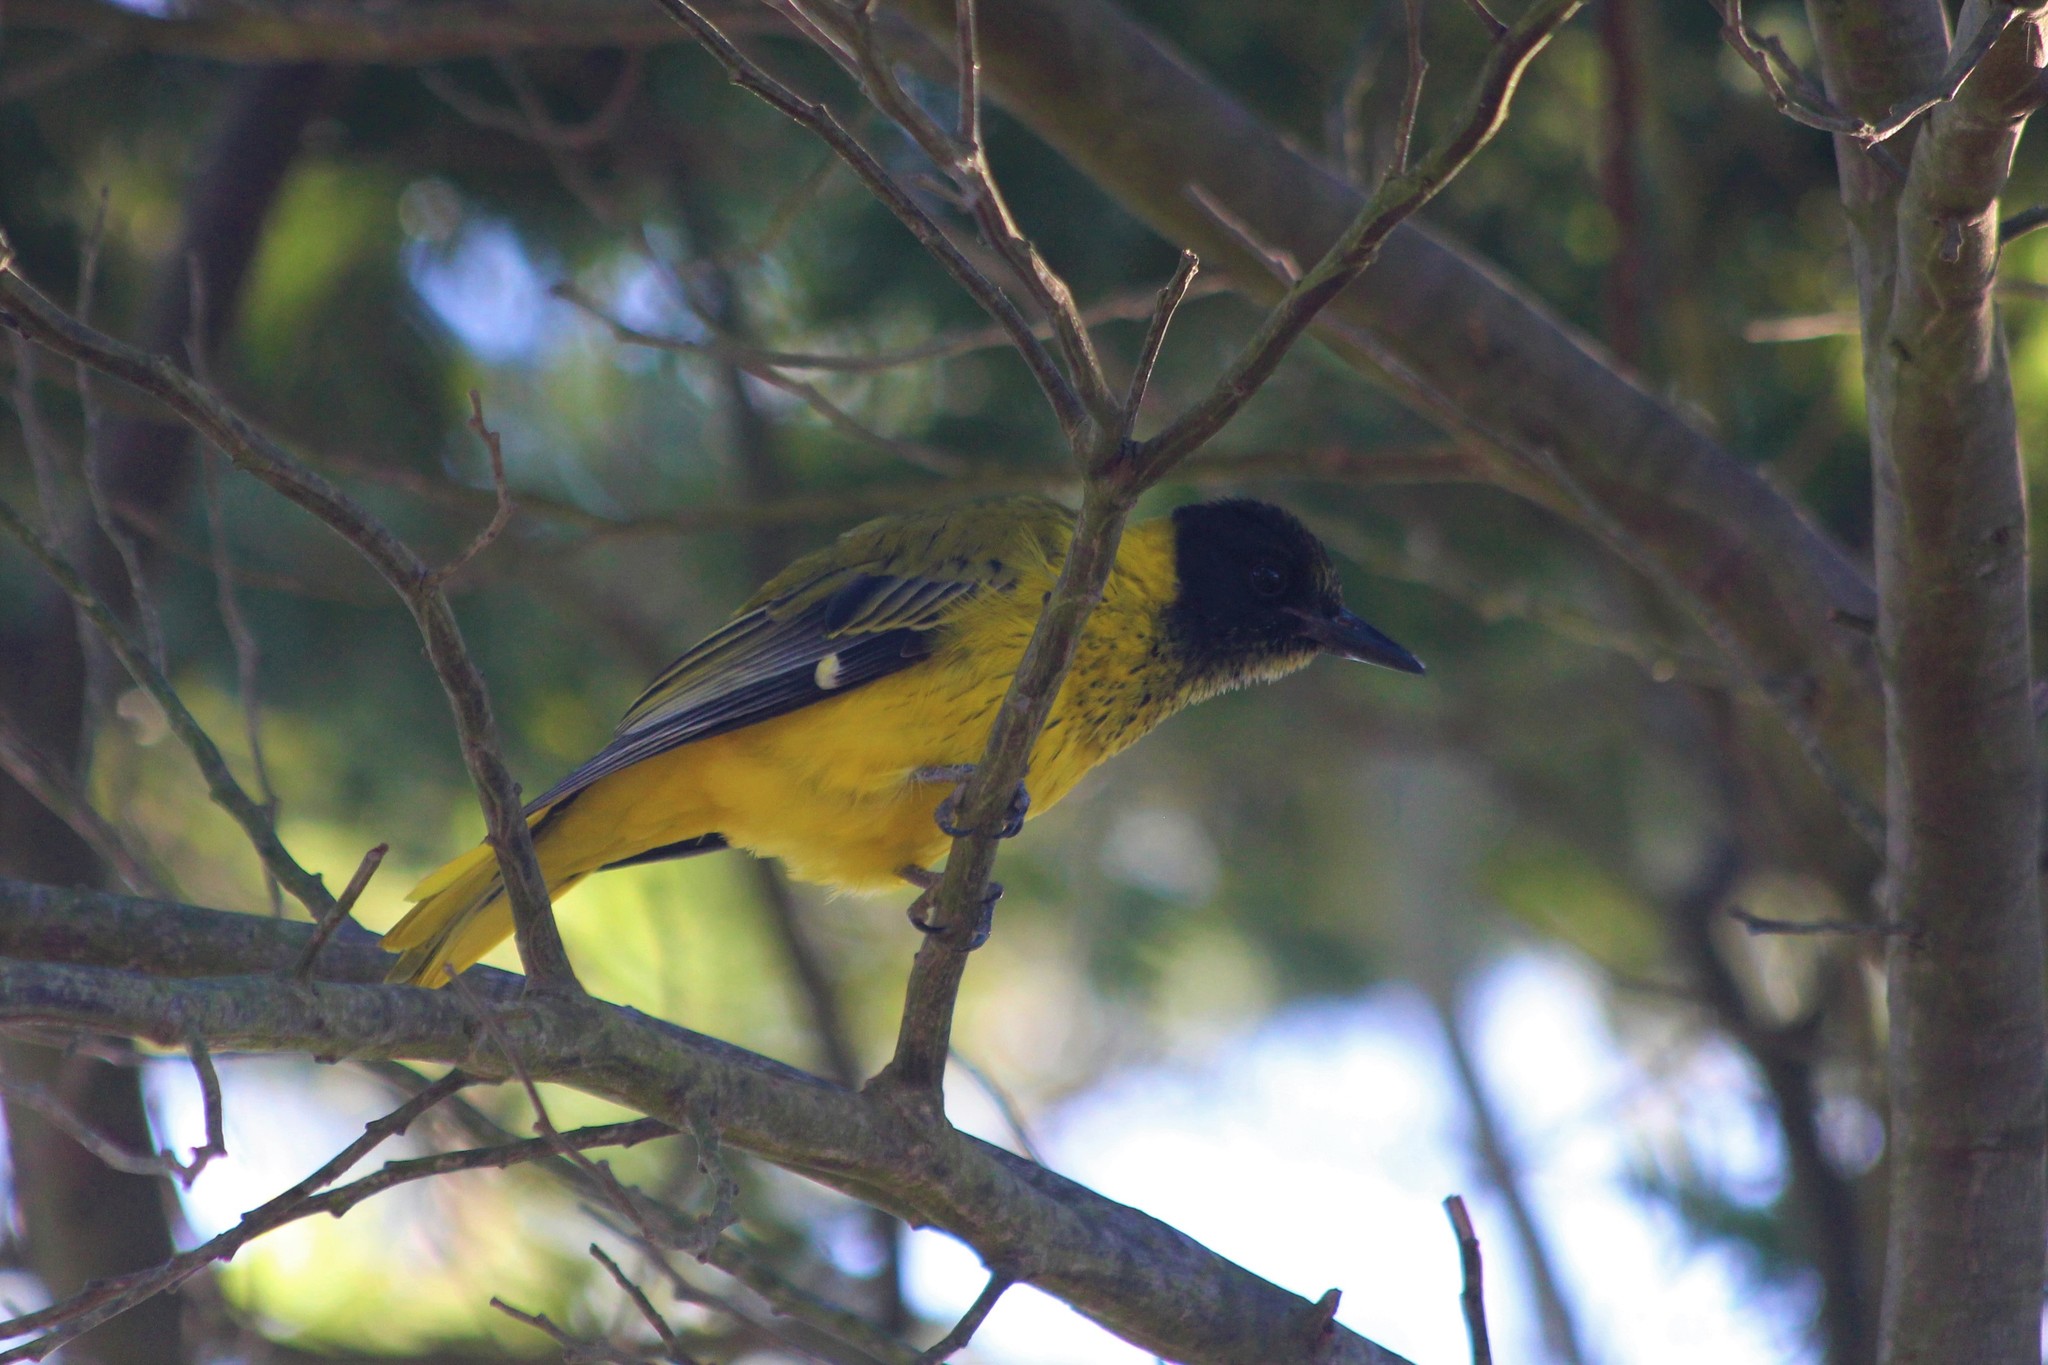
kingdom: Animalia
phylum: Chordata
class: Aves
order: Passeriformes
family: Oriolidae
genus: Oriolus
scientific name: Oriolus larvatus
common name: Black-headed oriole
